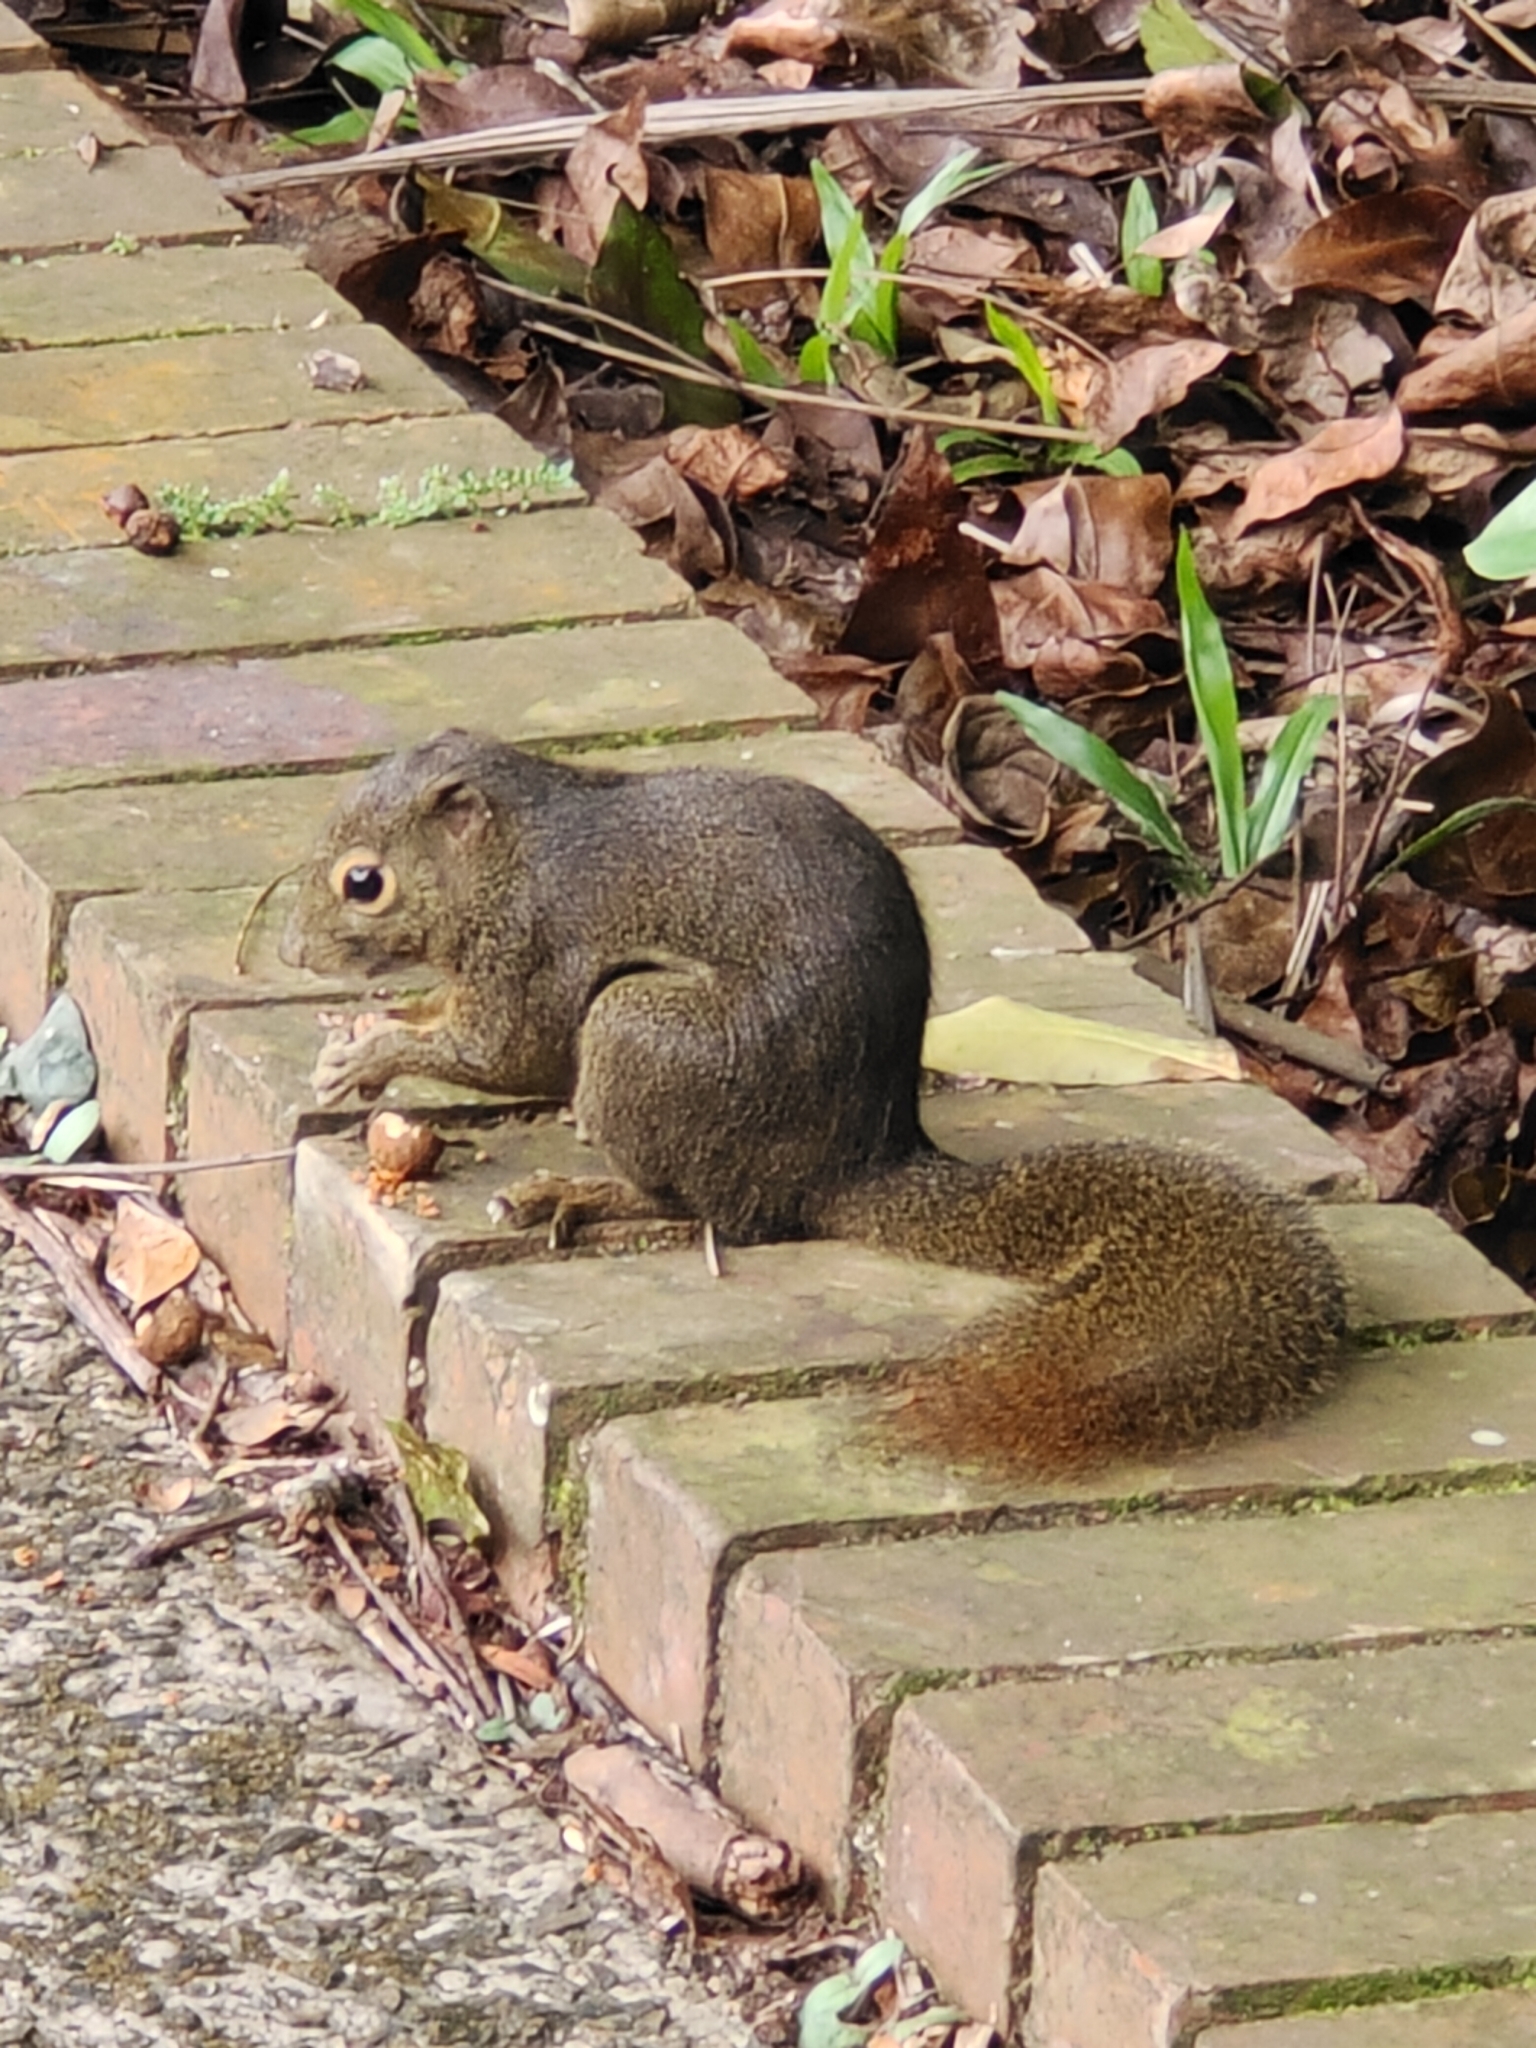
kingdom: Animalia
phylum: Chordata
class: Mammalia
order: Rodentia
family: Sciuridae
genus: Callosciurus
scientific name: Callosciurus notatus
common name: Plantain squirrel
